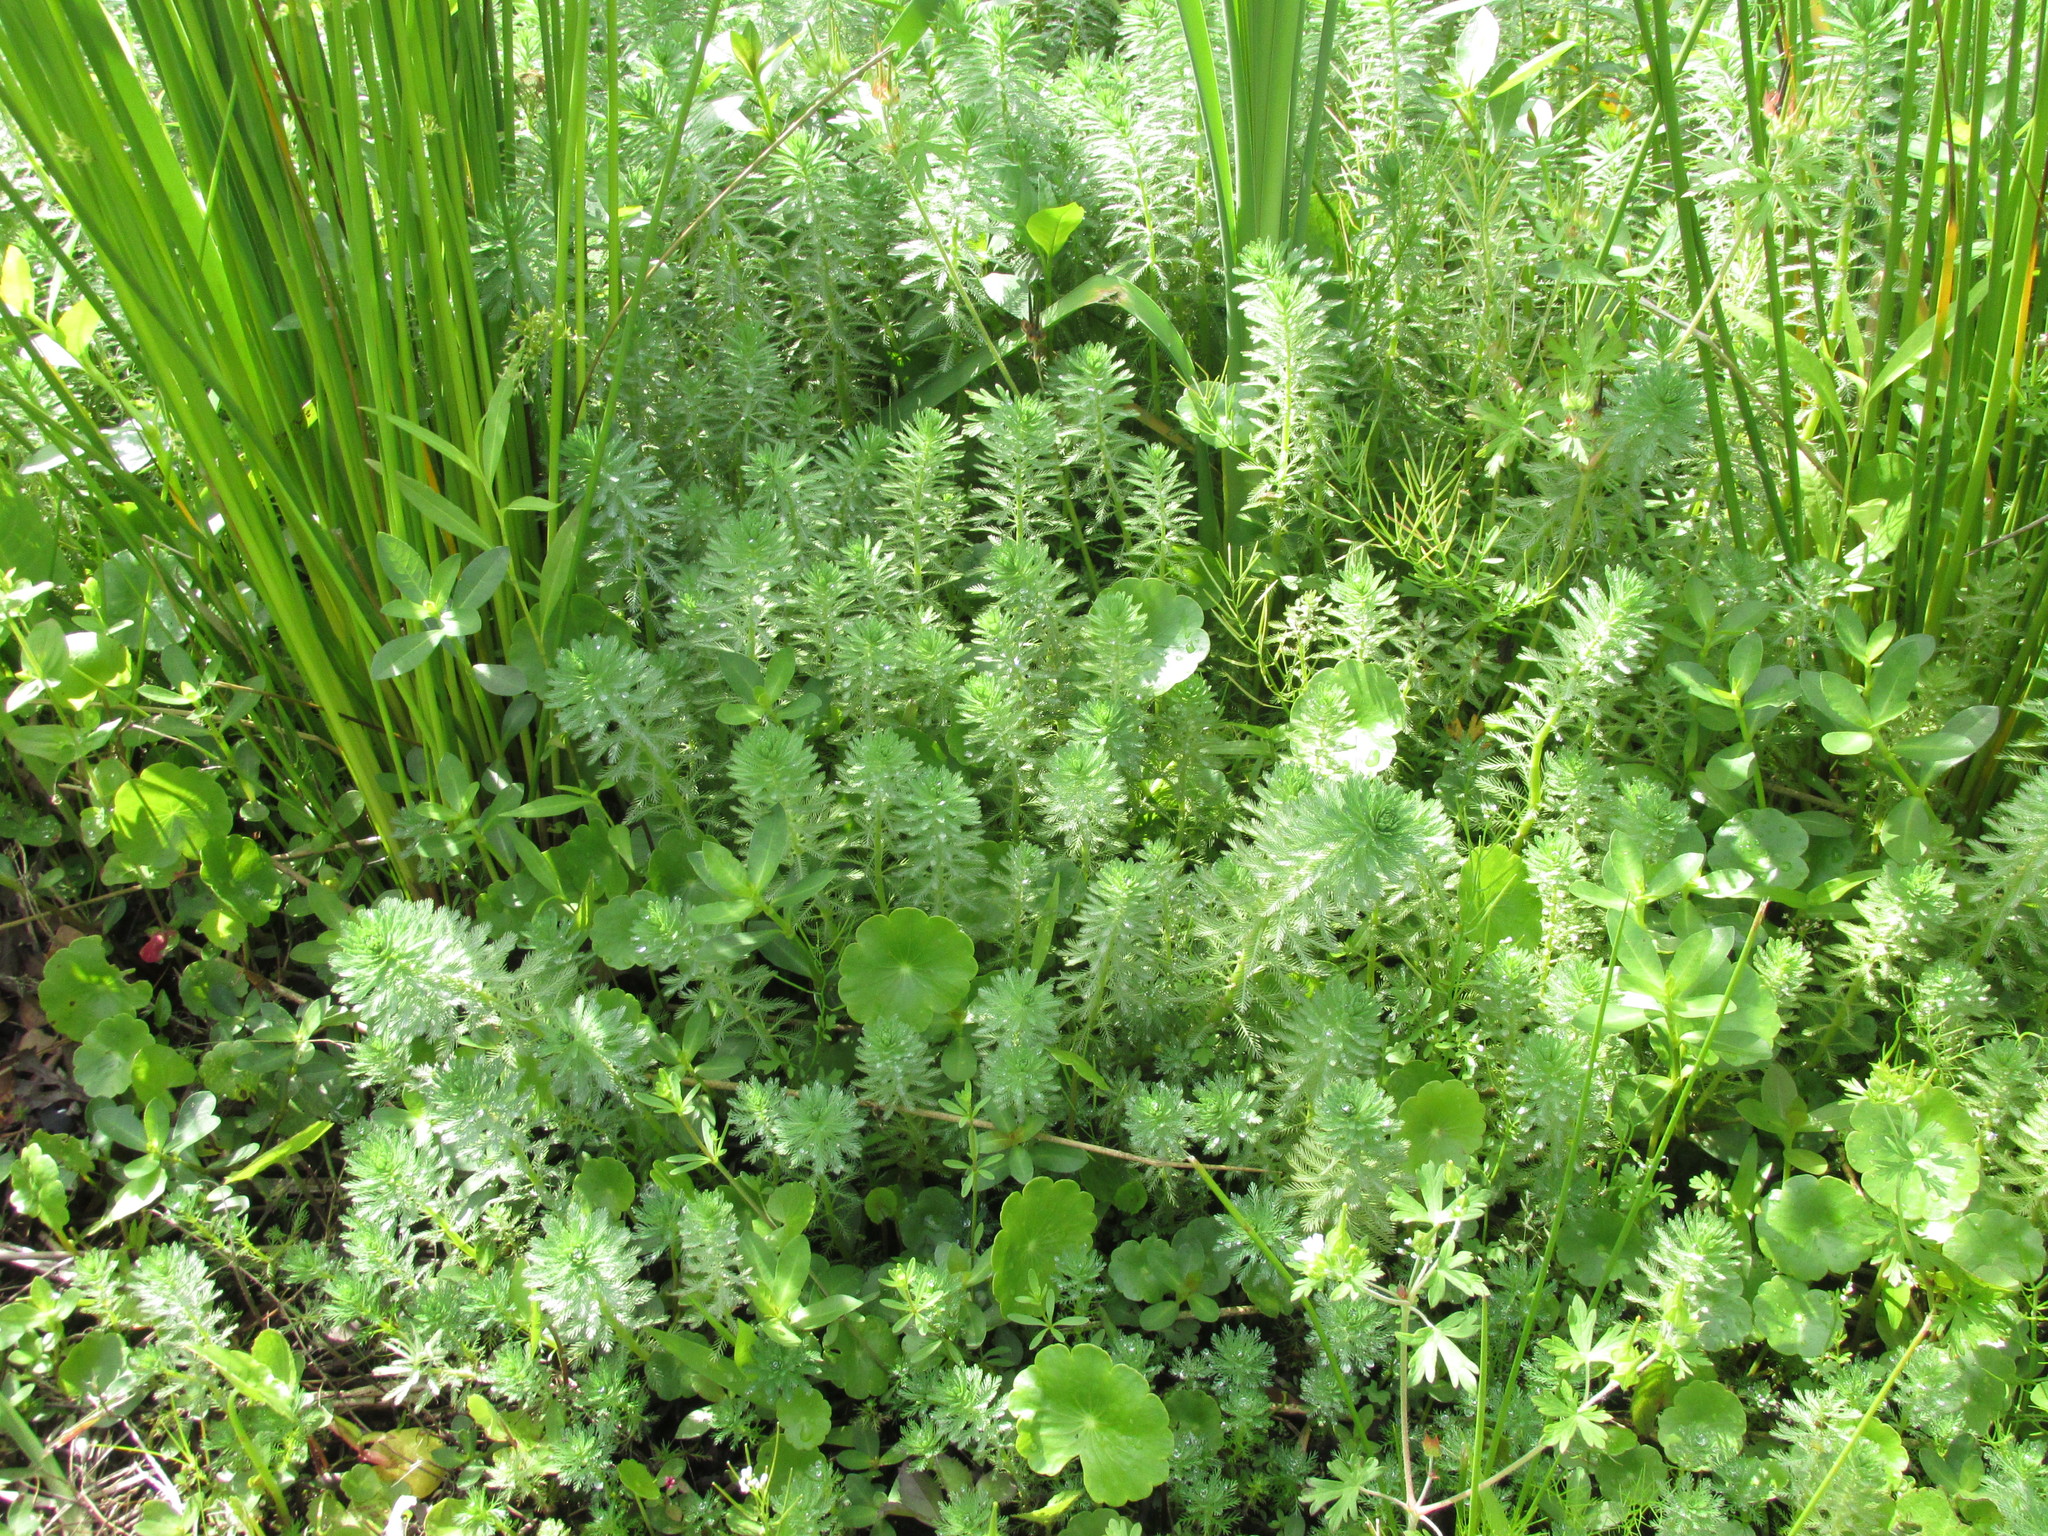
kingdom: Plantae
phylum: Tracheophyta
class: Magnoliopsida
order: Saxifragales
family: Haloragaceae
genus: Myriophyllum
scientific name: Myriophyllum aquaticum
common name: Parrot's feather
